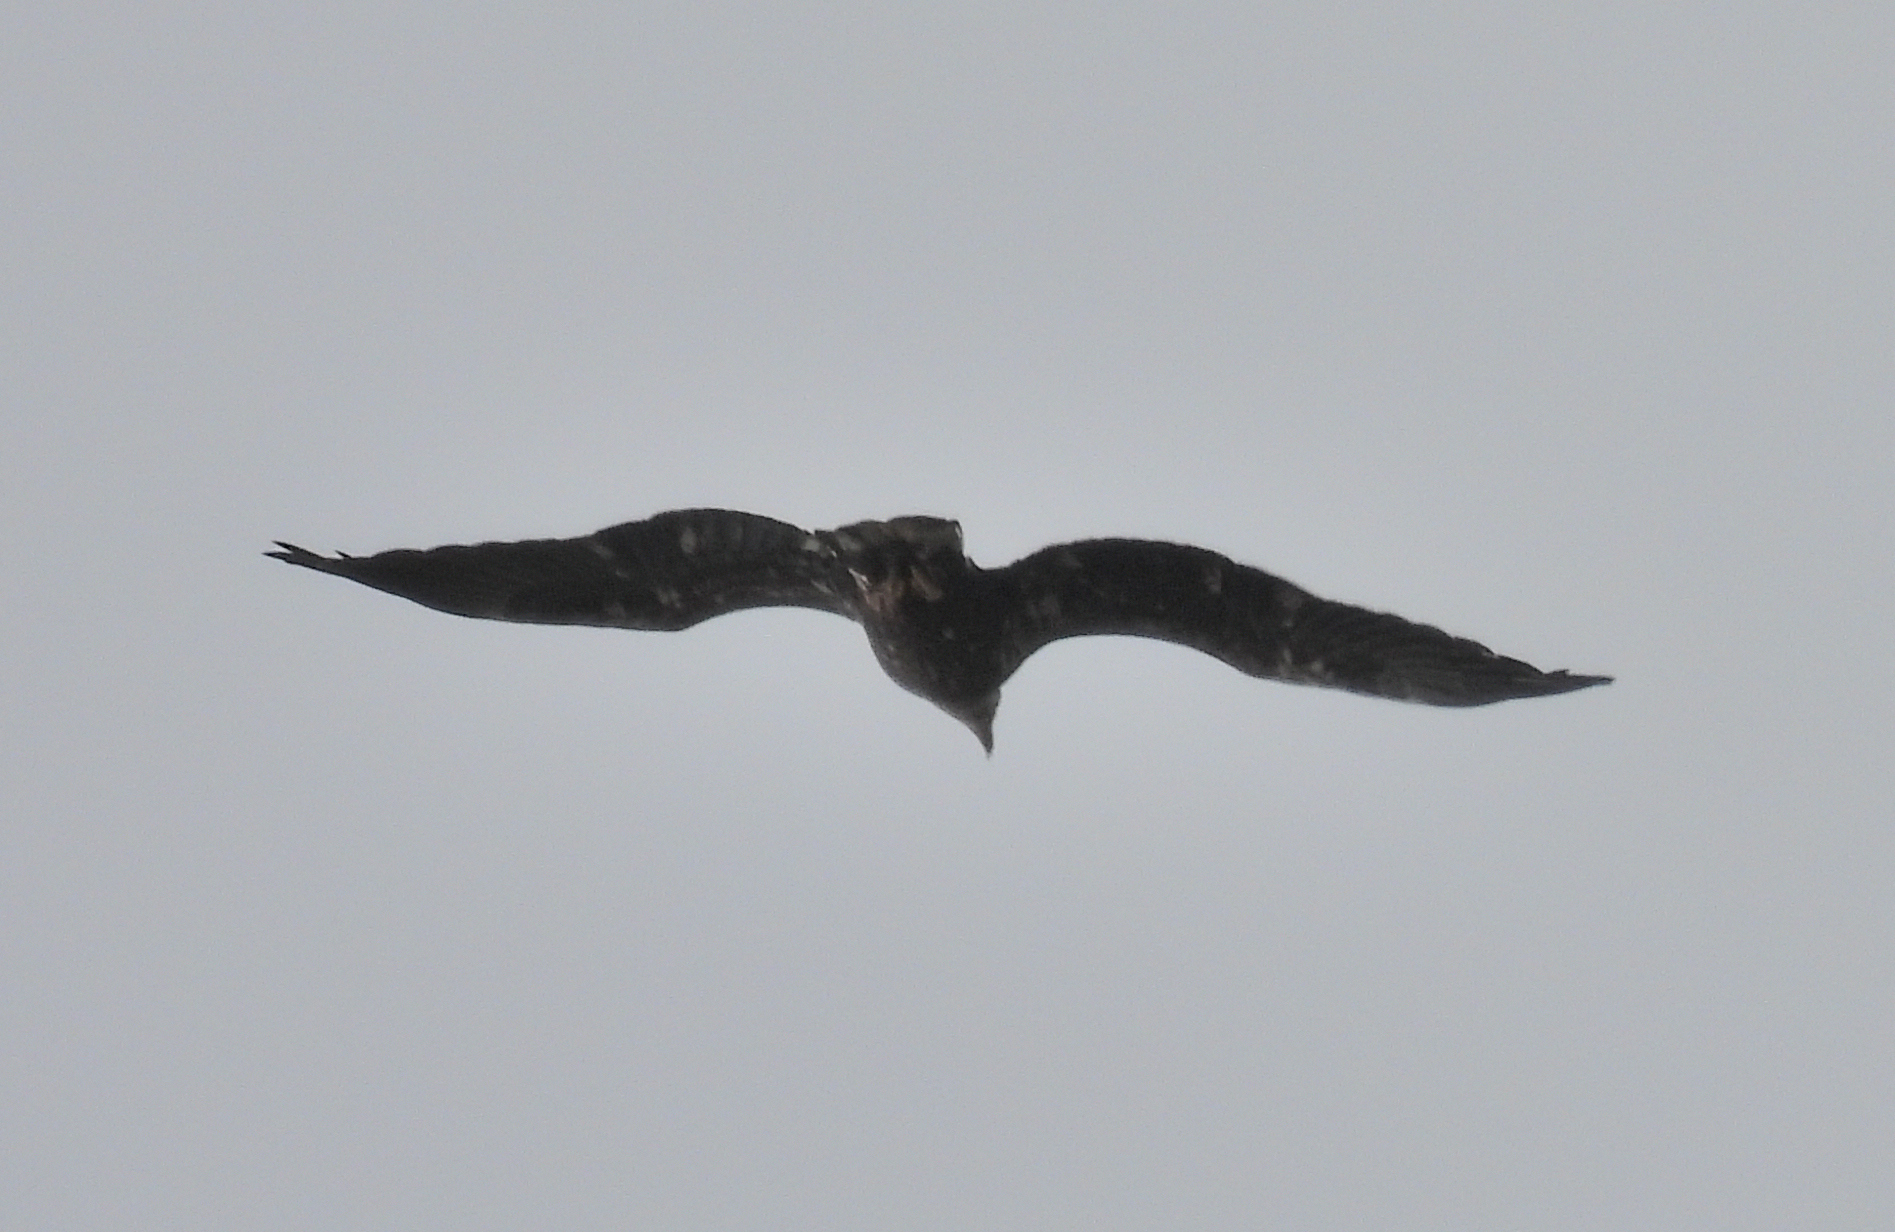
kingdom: Animalia
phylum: Chordata
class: Aves
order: Accipitriformes
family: Accipitridae
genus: Haliaeetus
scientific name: Haliaeetus leucocephalus
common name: Bald eagle
